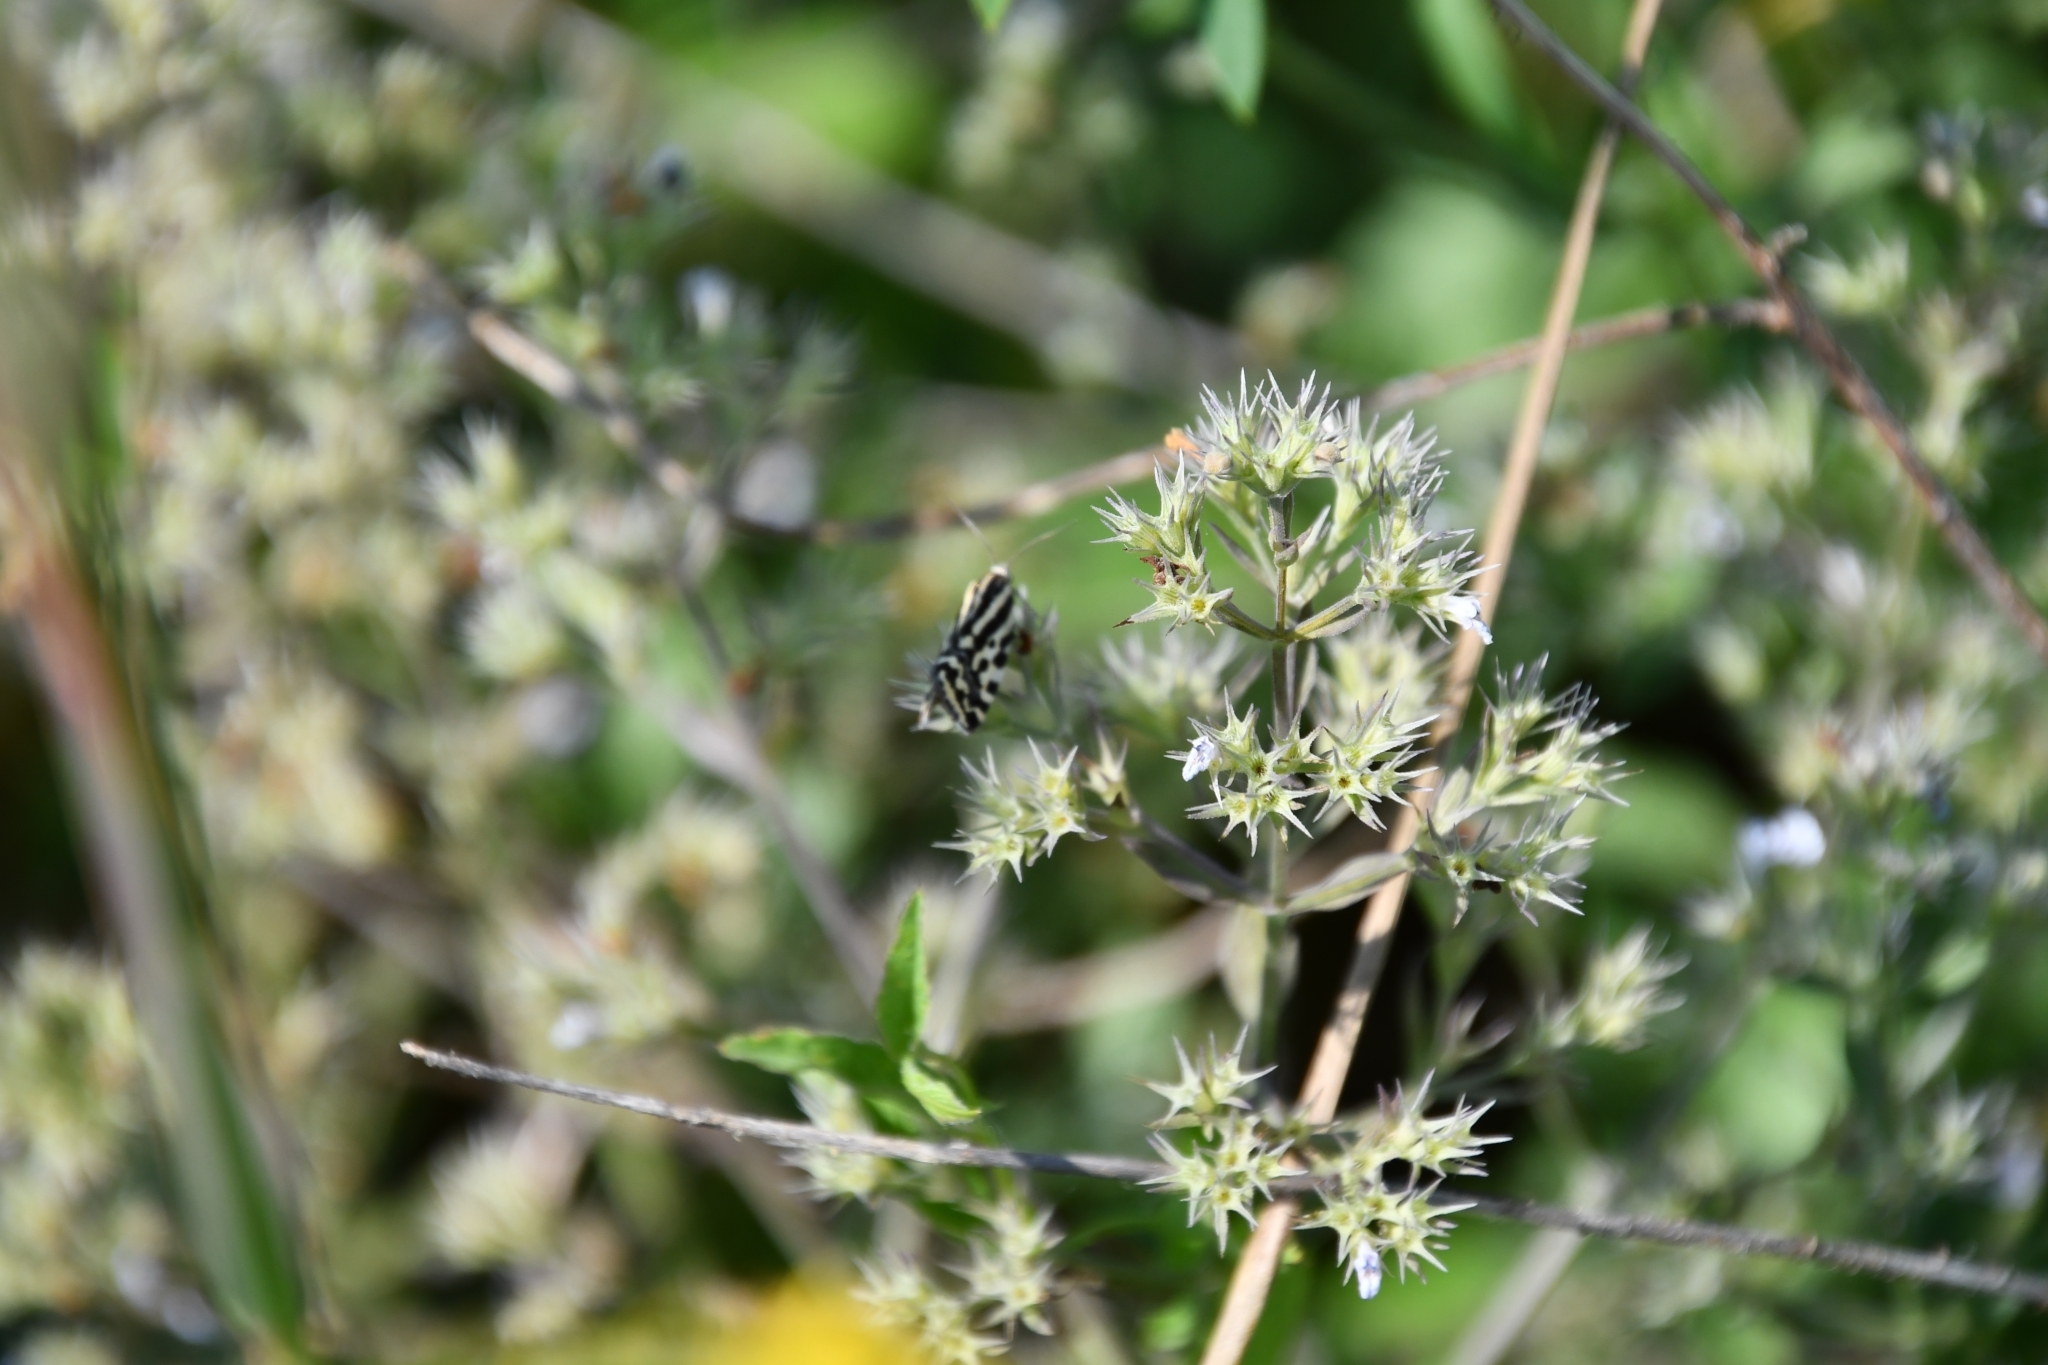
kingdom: Animalia
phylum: Arthropoda
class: Insecta
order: Lepidoptera
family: Noctuidae
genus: Acontia
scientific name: Acontia trabealis
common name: Spotted sulphur
